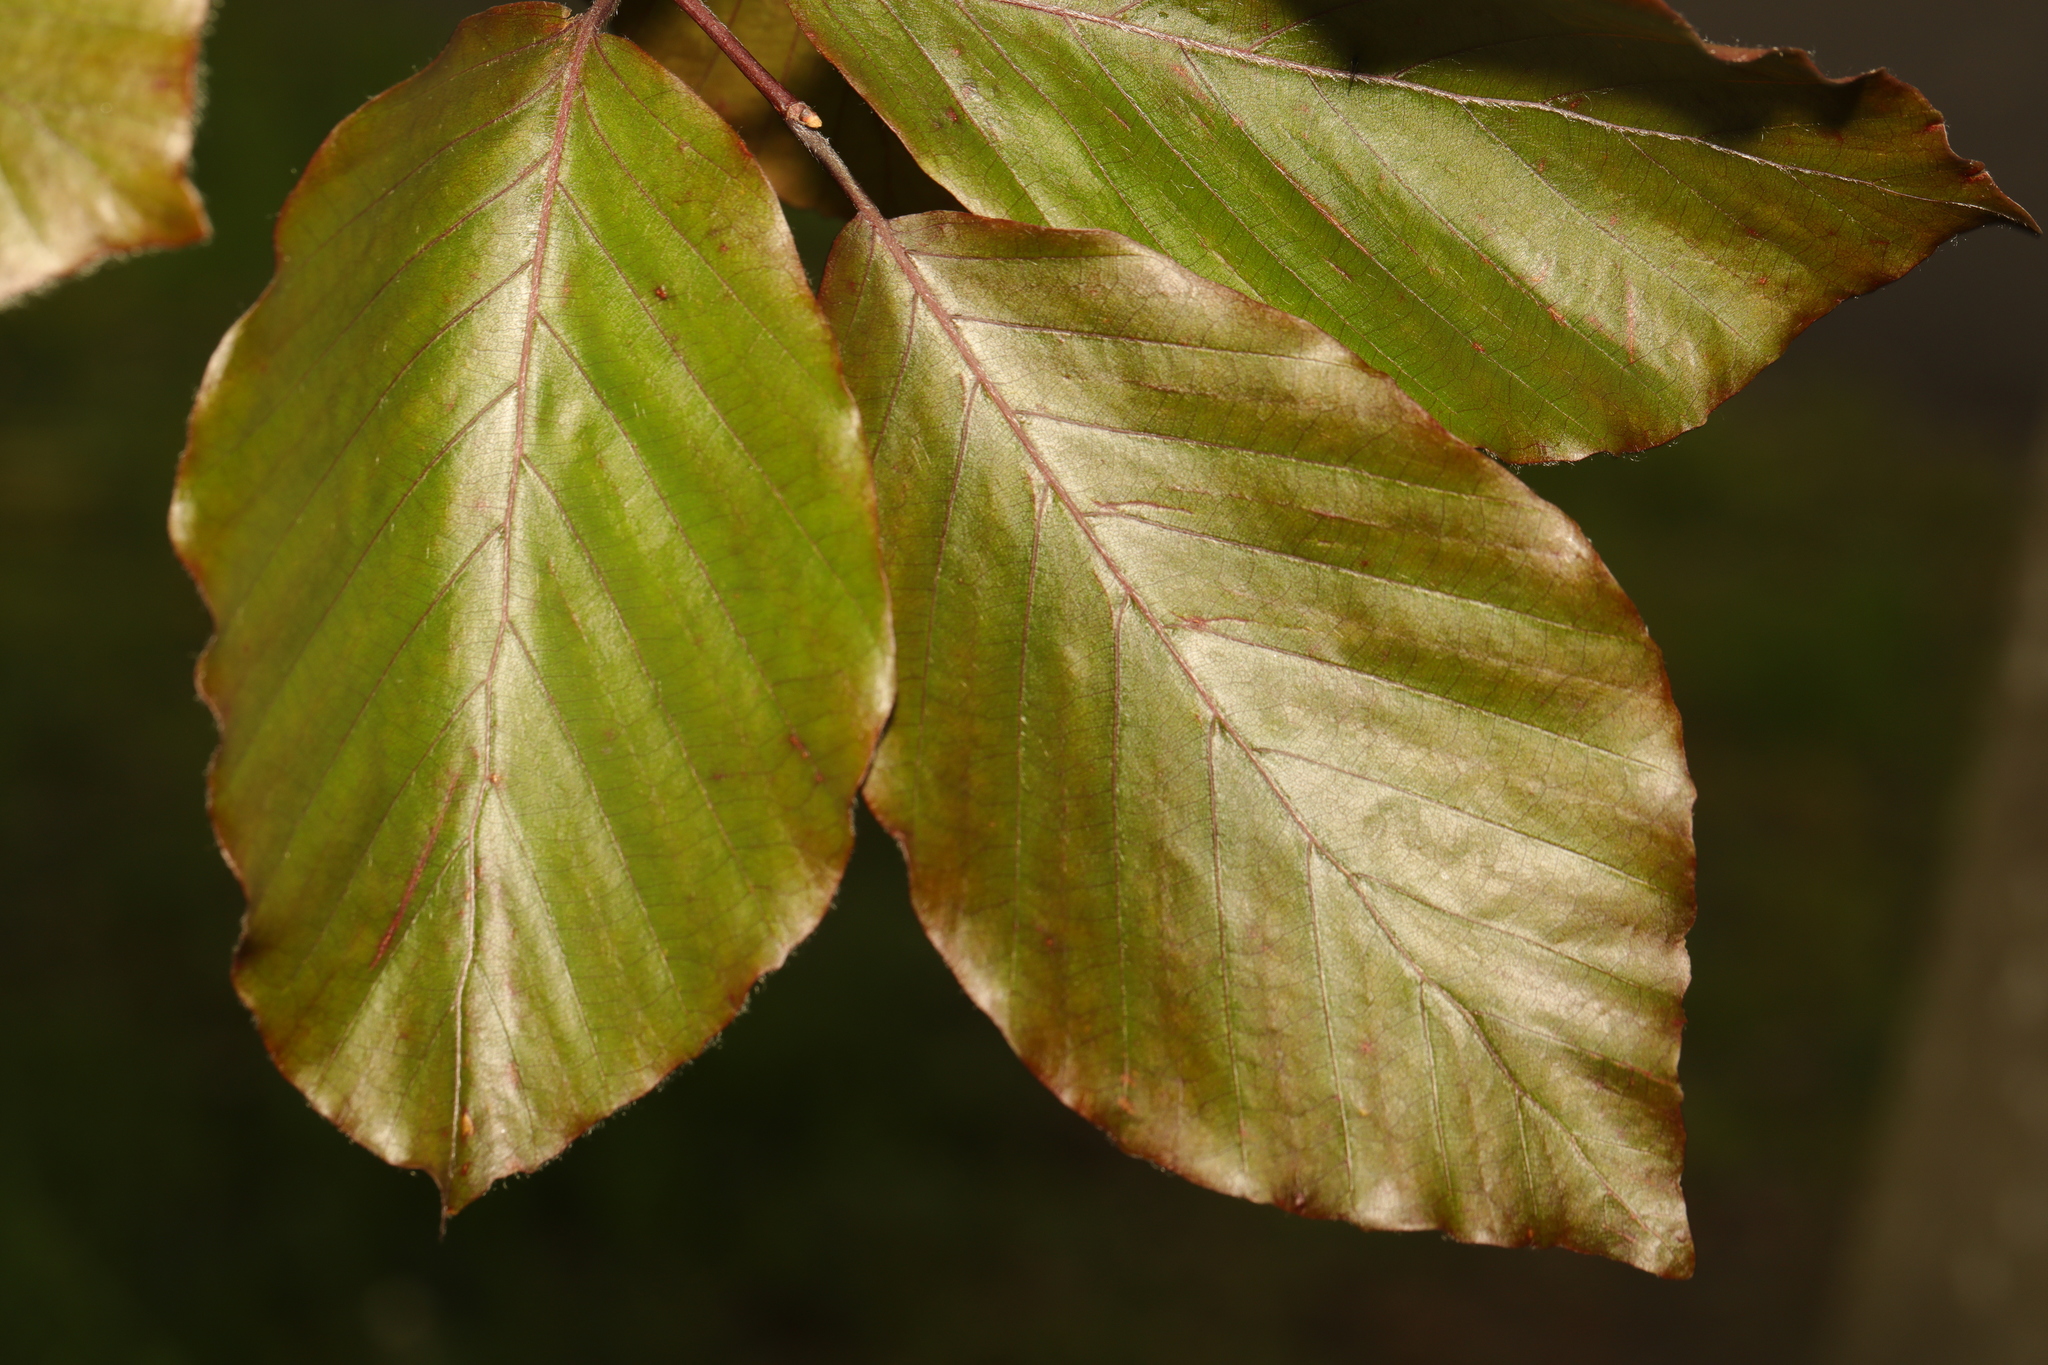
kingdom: Plantae
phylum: Tracheophyta
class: Magnoliopsida
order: Fagales
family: Fagaceae
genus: Fagus
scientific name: Fagus sylvatica
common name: Beech
